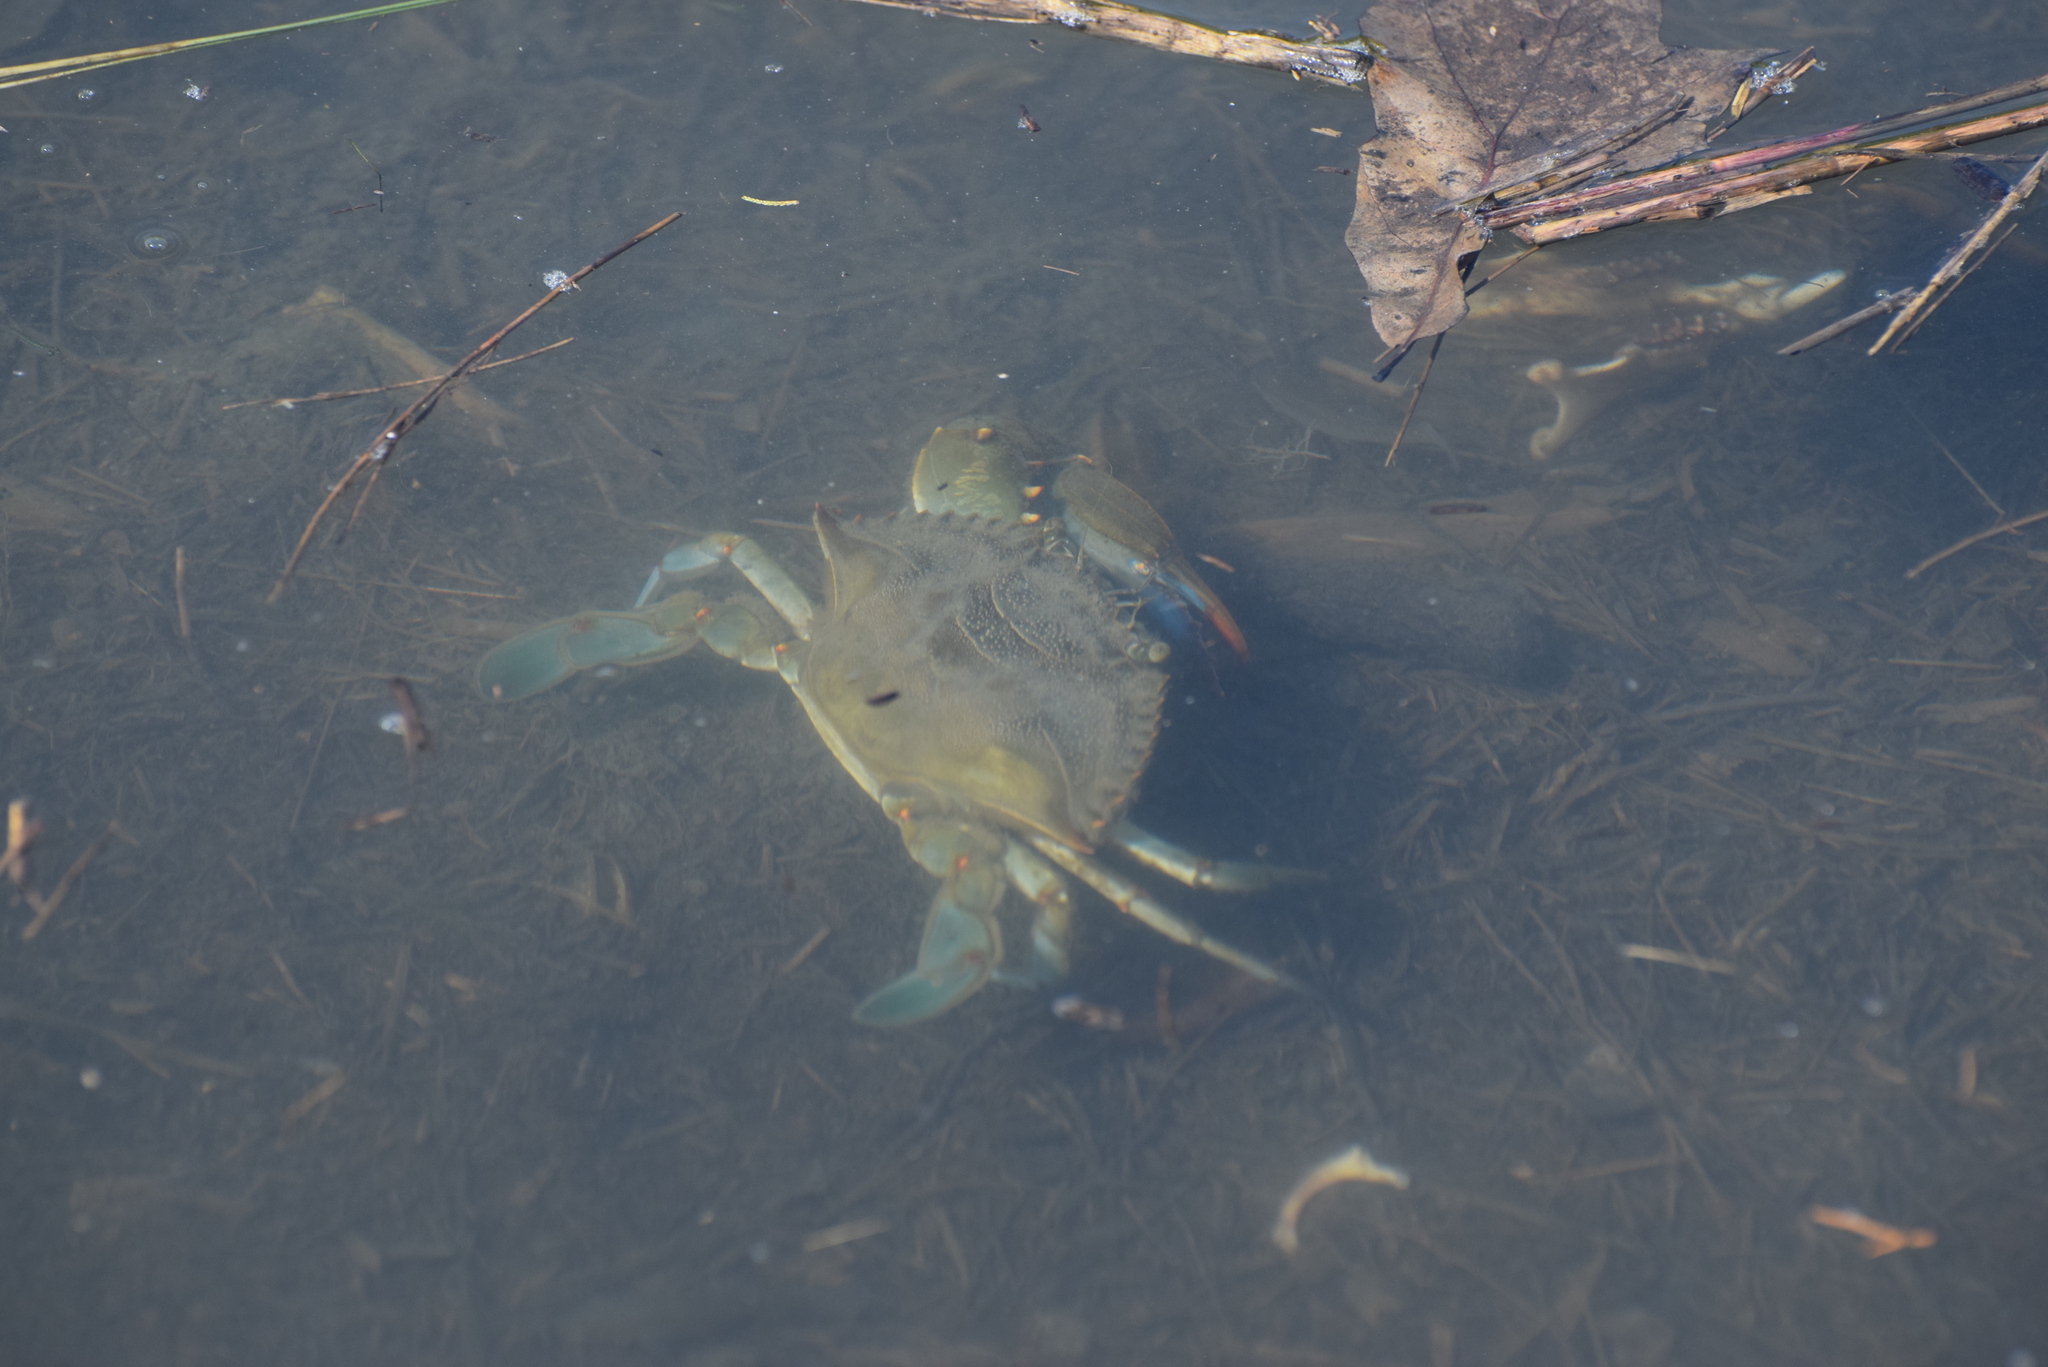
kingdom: Animalia
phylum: Arthropoda
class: Malacostraca
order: Decapoda
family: Portunidae
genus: Callinectes
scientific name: Callinectes sapidus
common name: Blue crab
